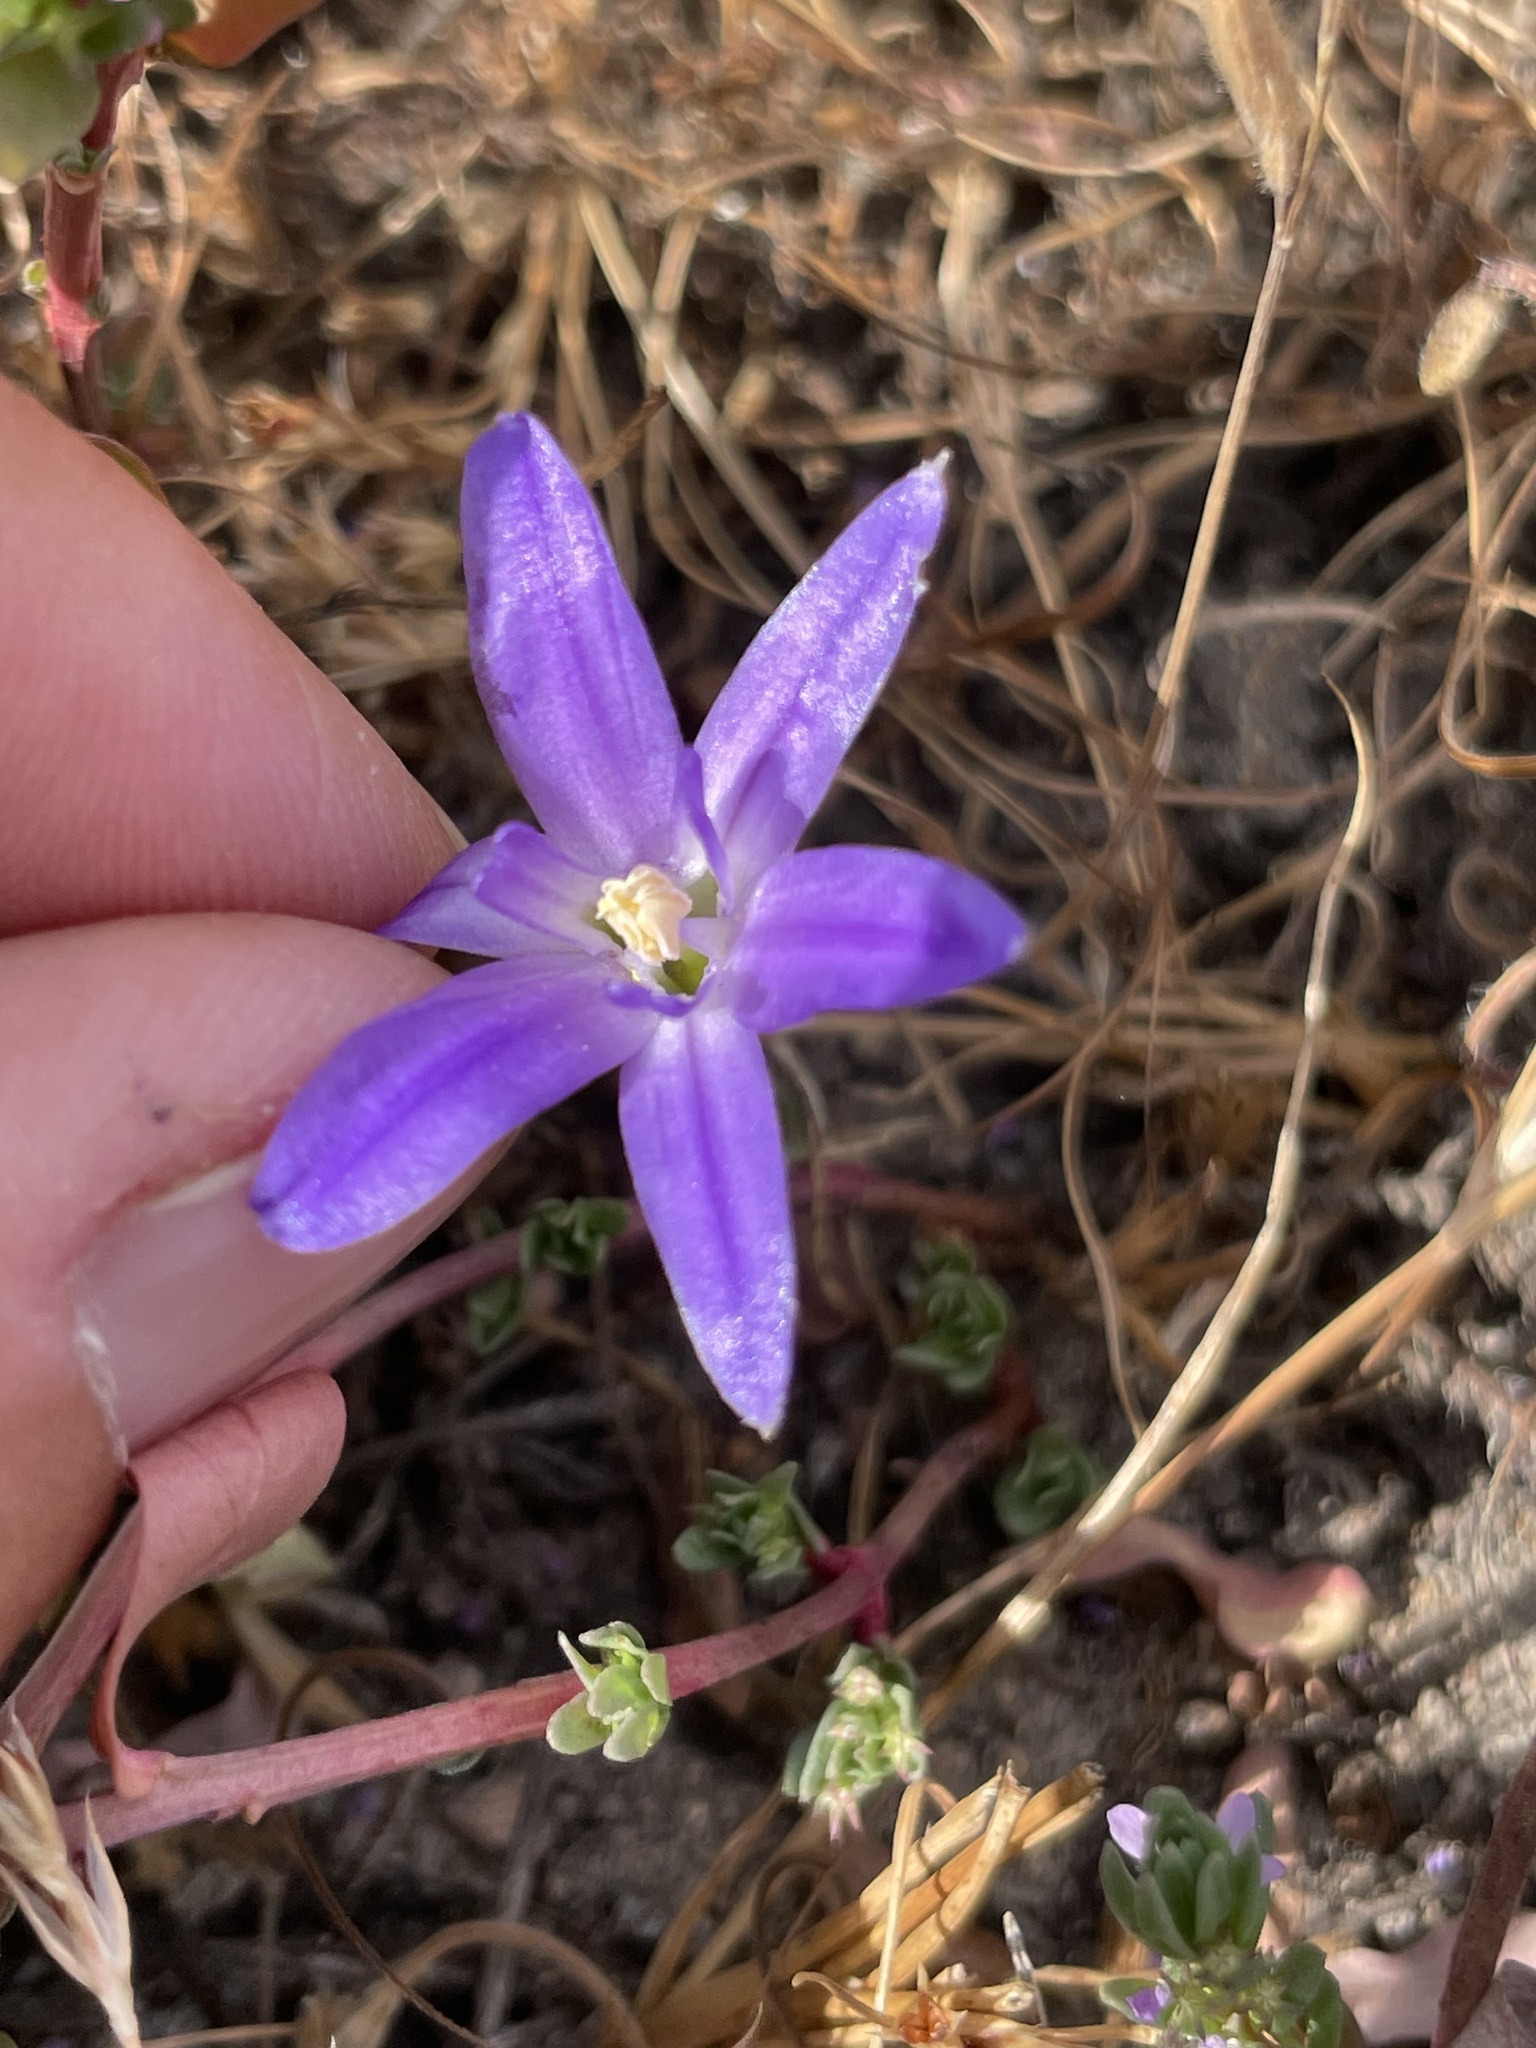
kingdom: Plantae
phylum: Tracheophyta
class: Liliopsida
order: Asparagales
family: Asparagaceae
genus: Brodiaea
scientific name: Brodiaea terrestris
